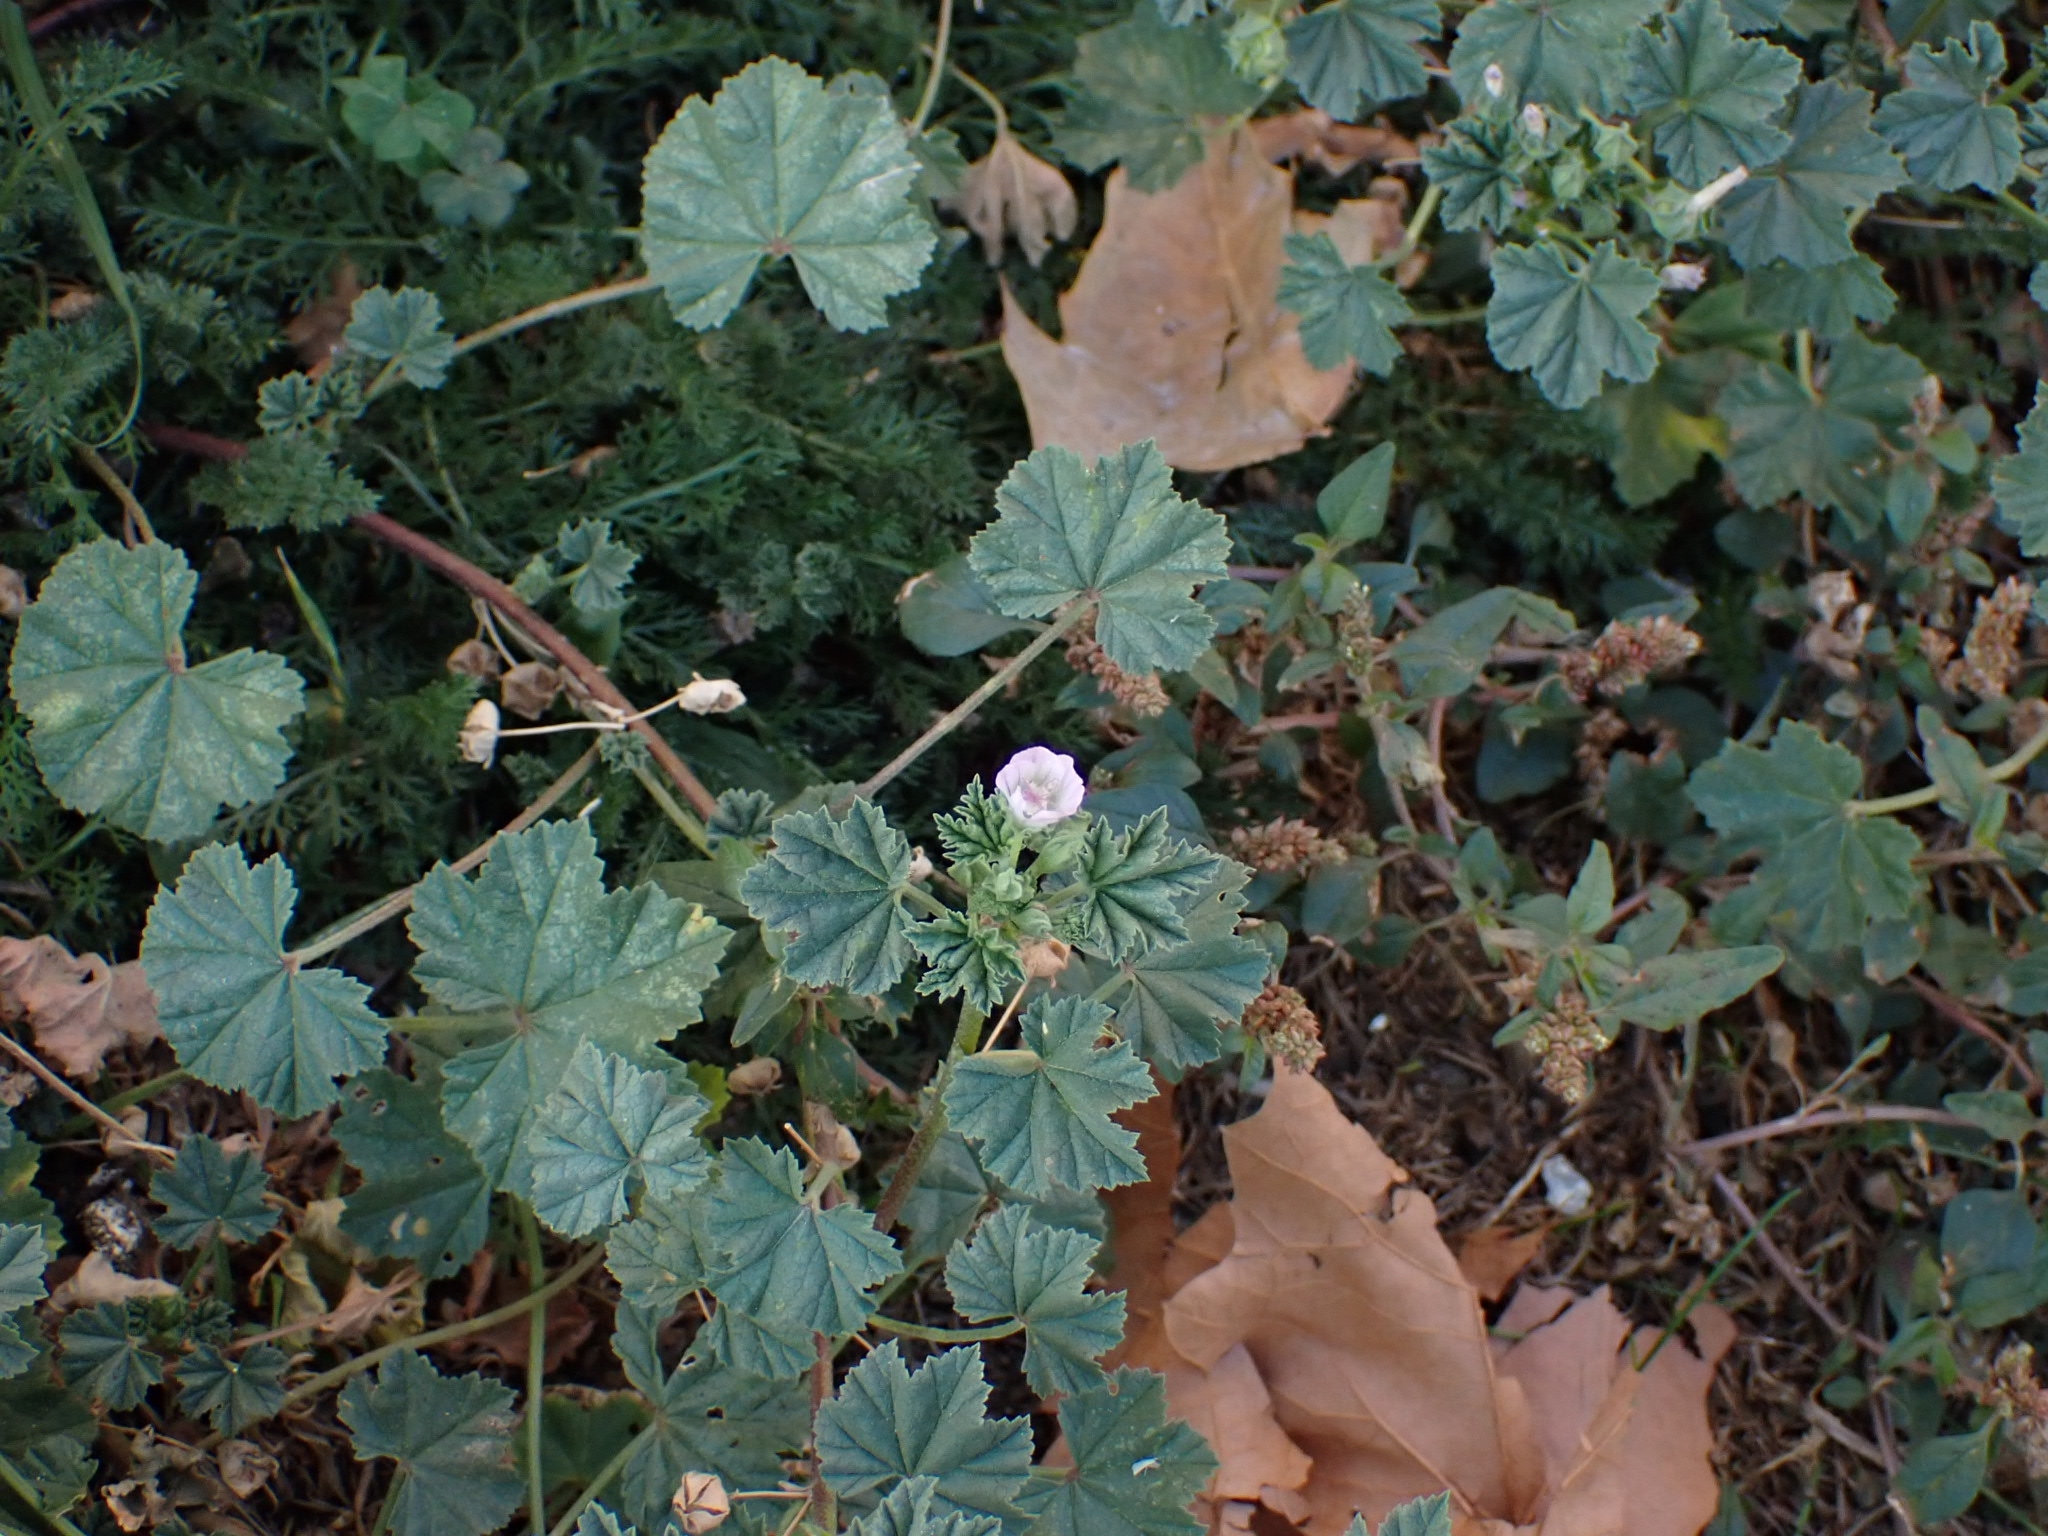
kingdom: Plantae
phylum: Tracheophyta
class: Magnoliopsida
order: Malvales
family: Malvaceae
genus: Malva
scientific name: Malva neglecta
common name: Common mallow
